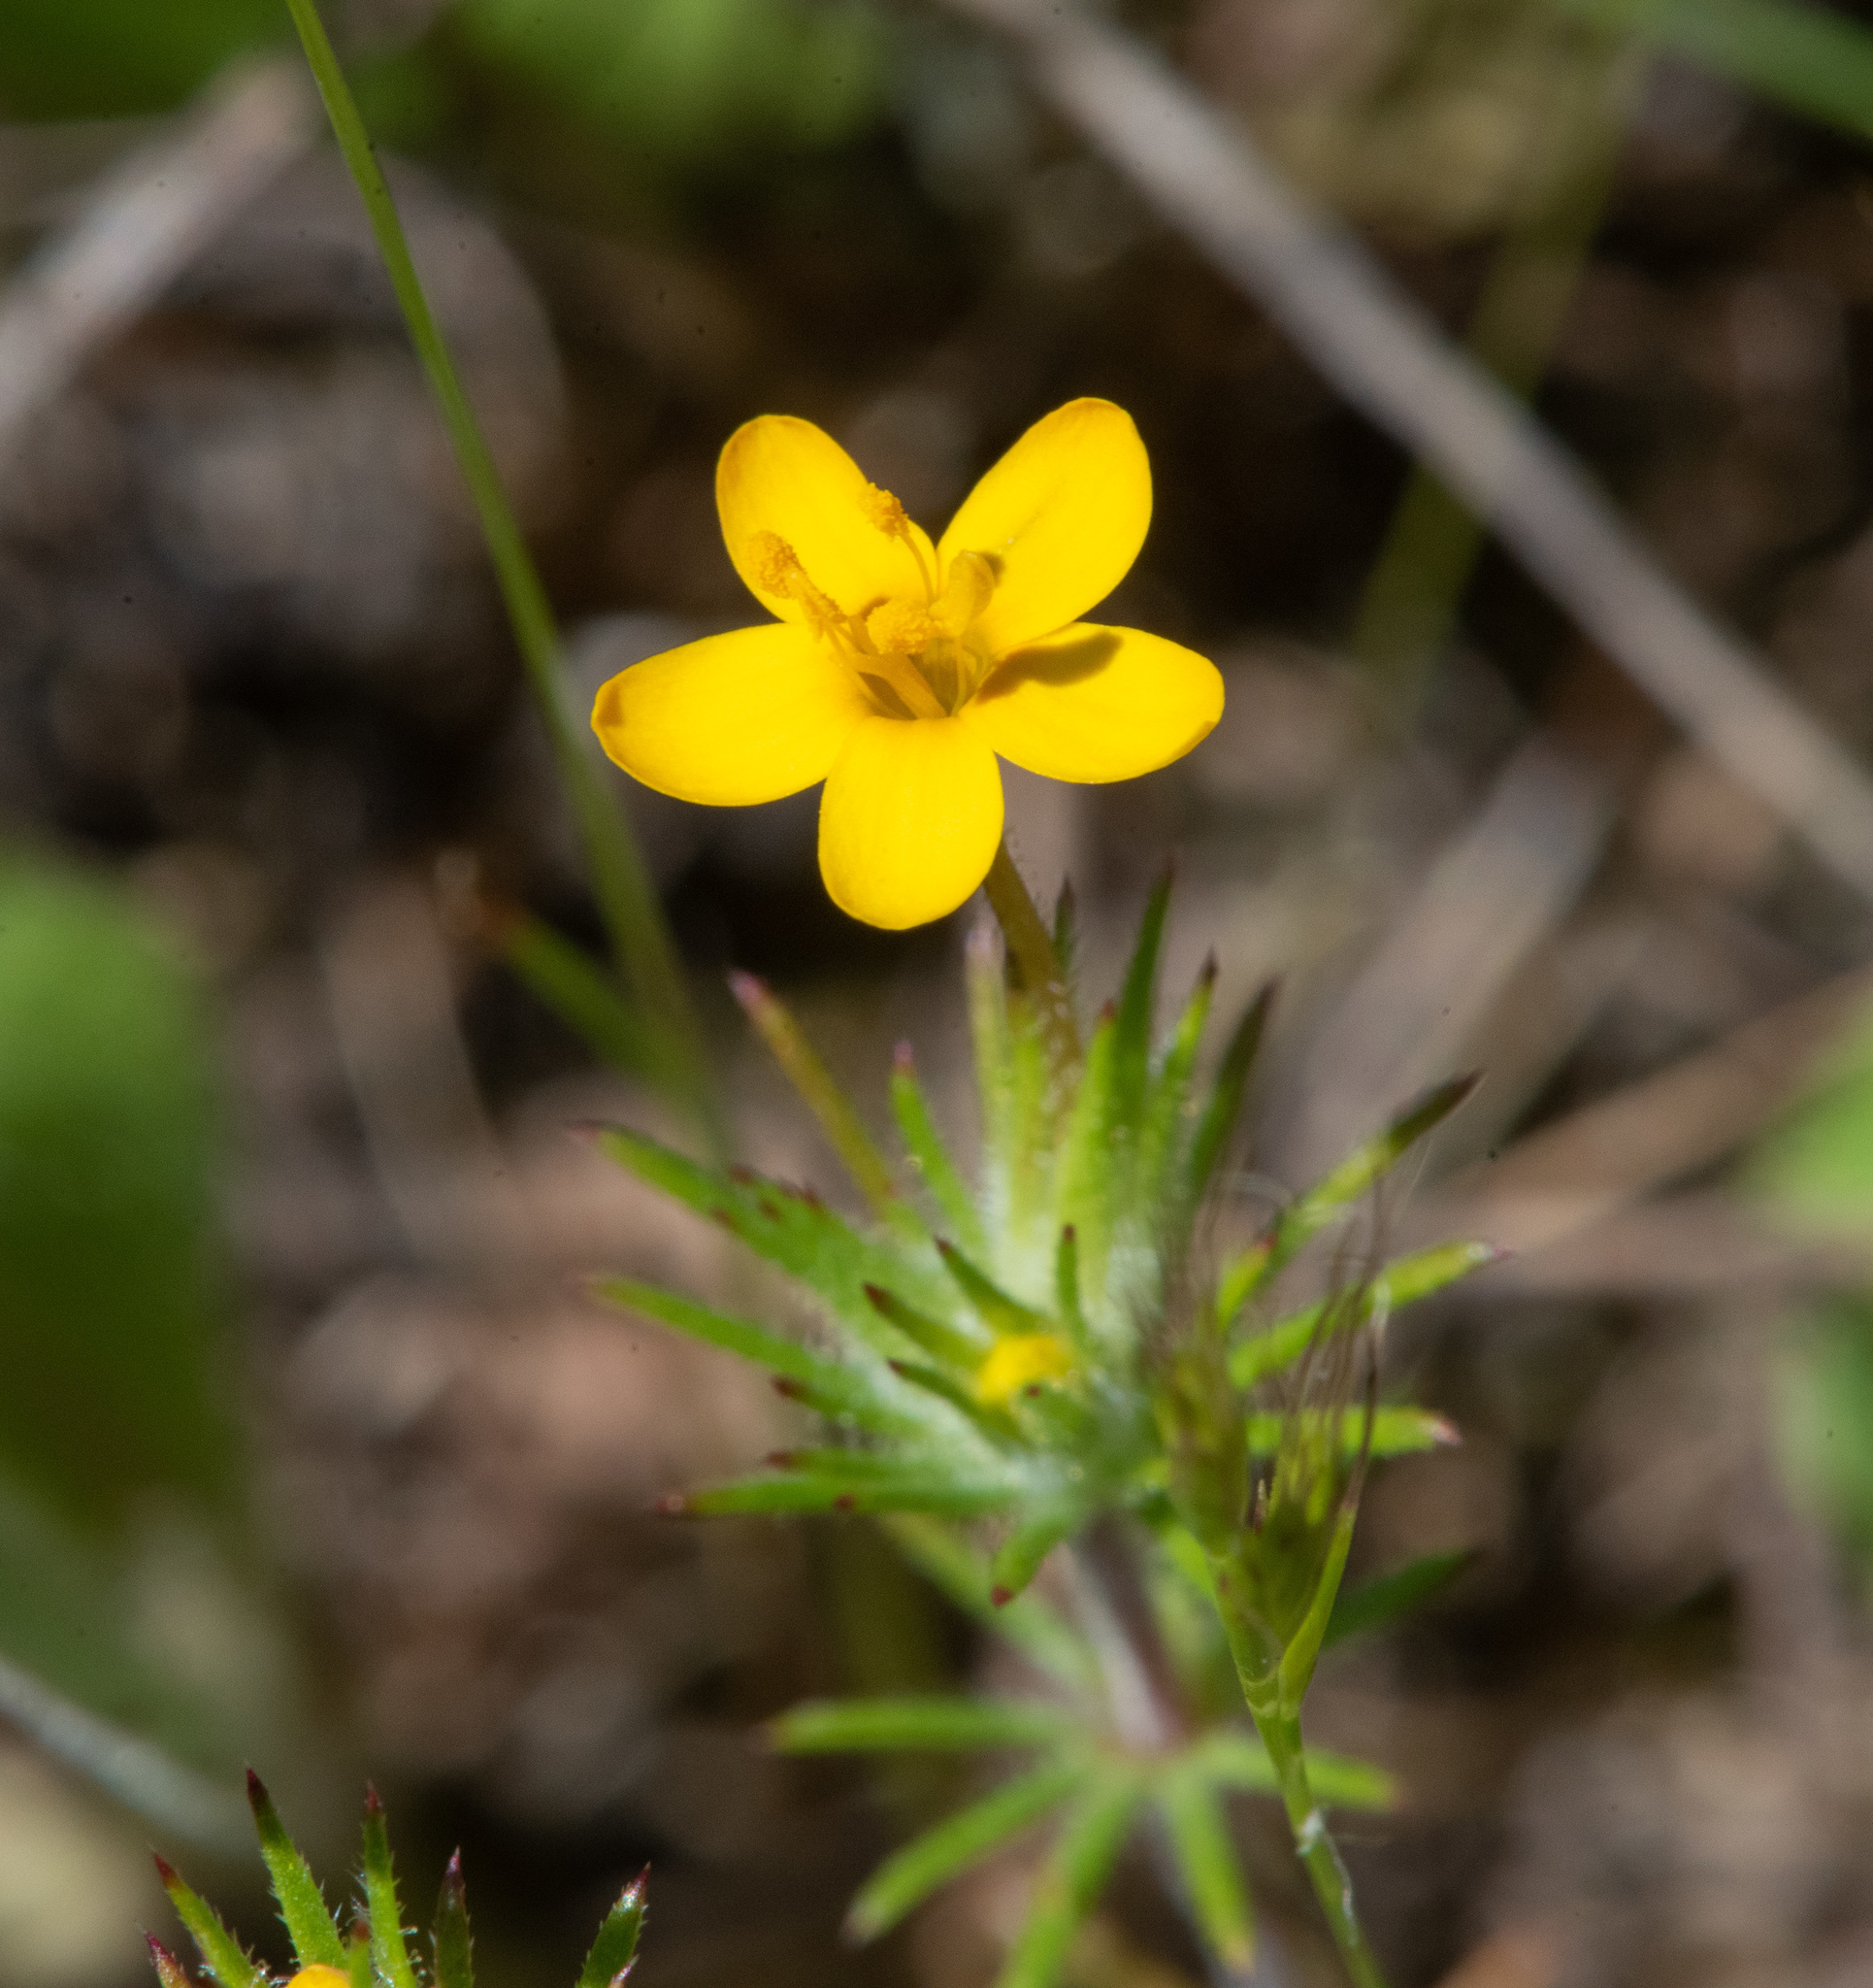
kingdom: Plantae
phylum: Tracheophyta
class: Magnoliopsida
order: Ericales
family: Polemoniaceae
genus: Leptosiphon
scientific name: Leptosiphon acicularis
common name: Bristly linanthus
